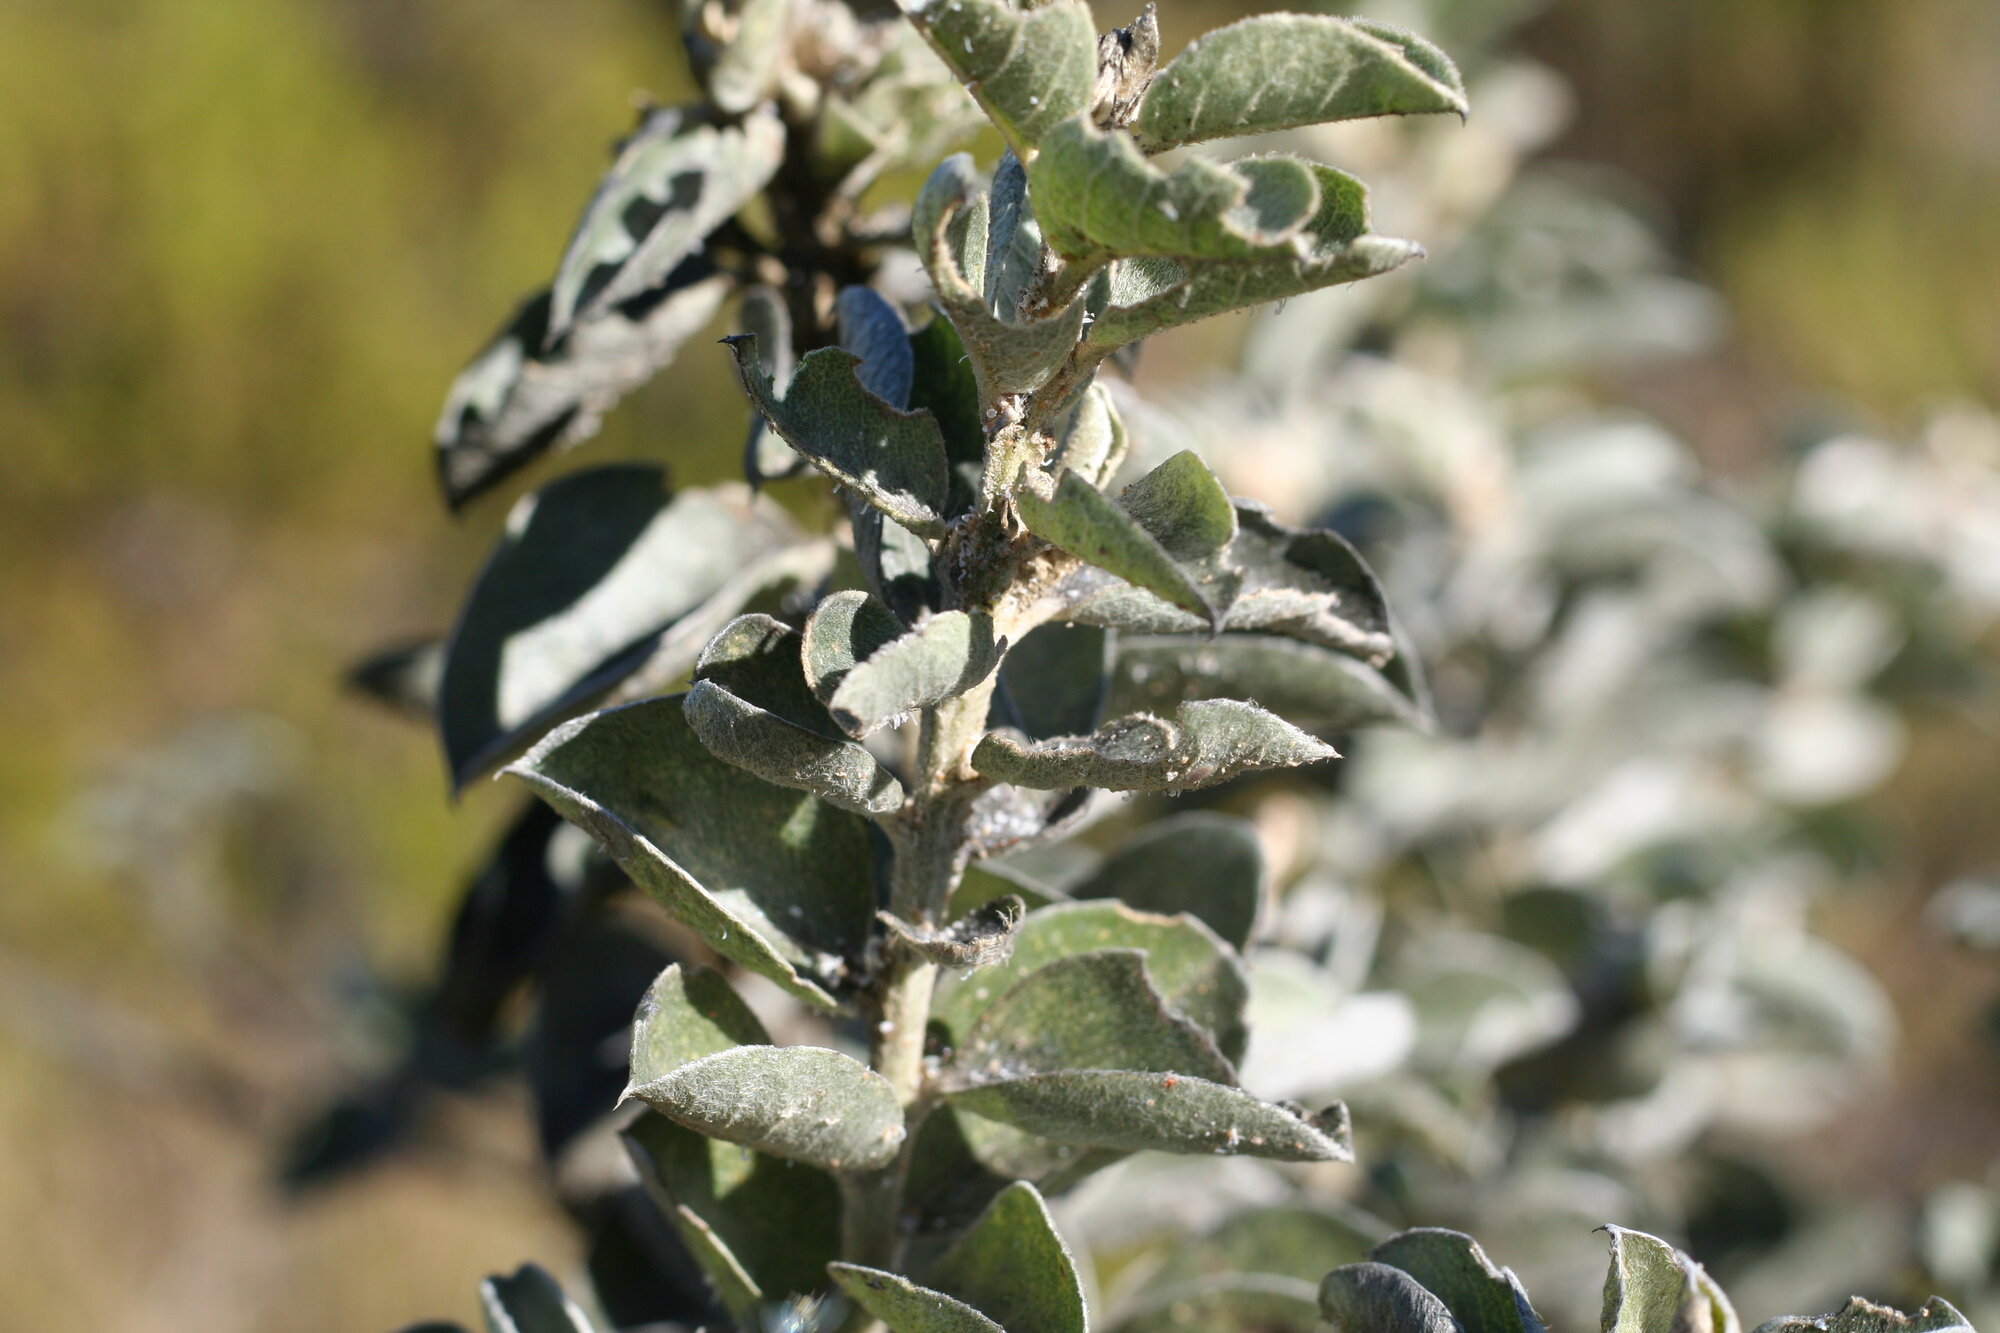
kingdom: Plantae
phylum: Tracheophyta
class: Magnoliopsida
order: Fabales
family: Fabaceae
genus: Podalyria
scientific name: Podalyria calyptrata
